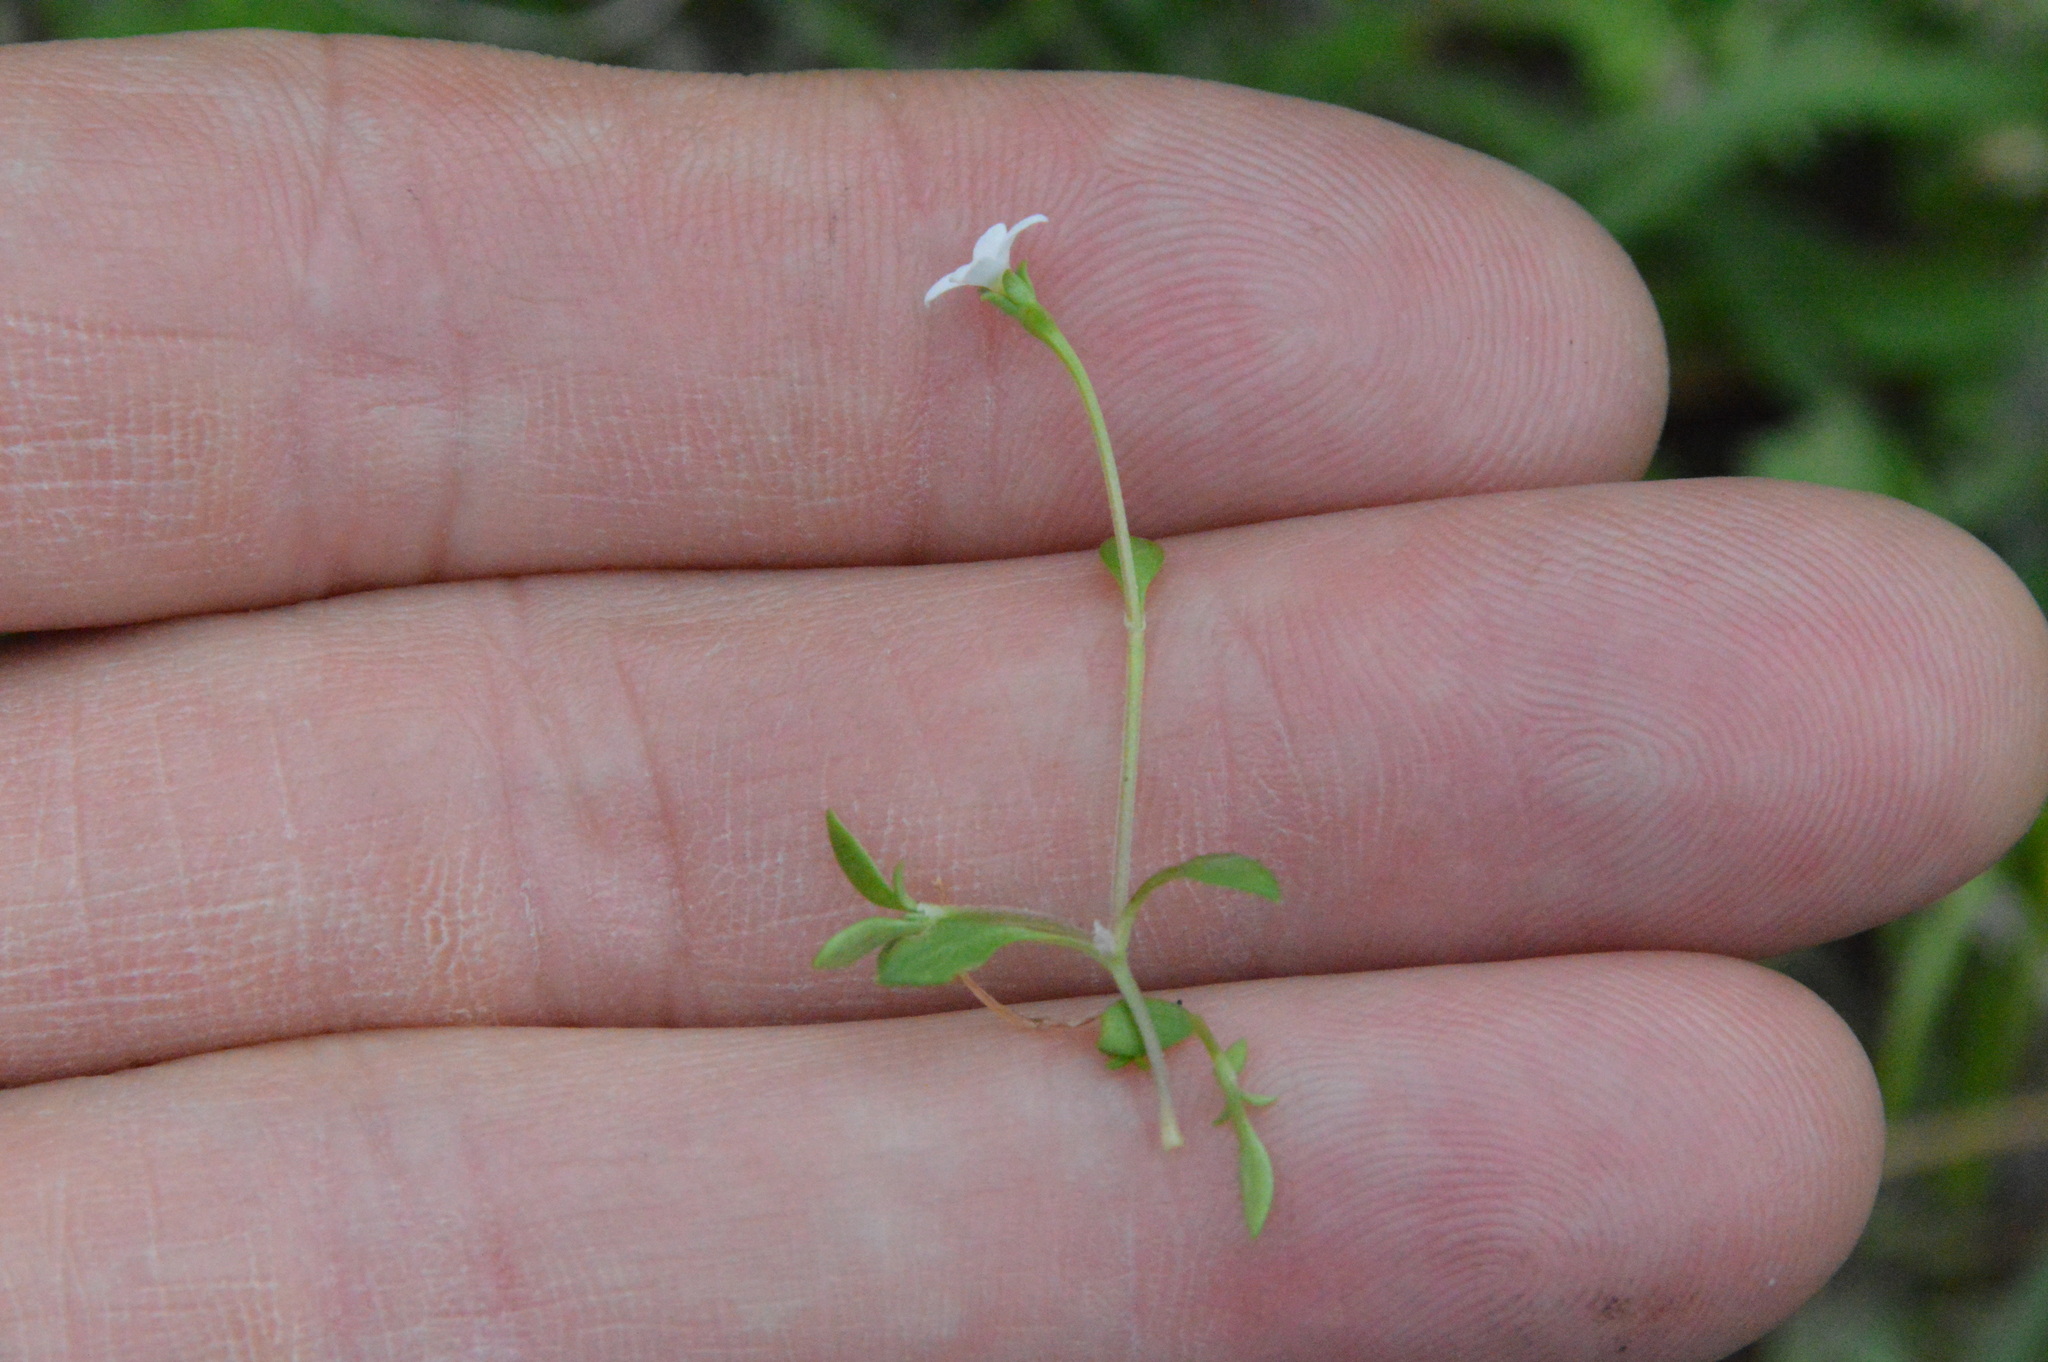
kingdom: Plantae
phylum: Tracheophyta
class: Magnoliopsida
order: Gentianales
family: Rubiaceae
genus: Houstonia
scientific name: Houstonia micrantha
